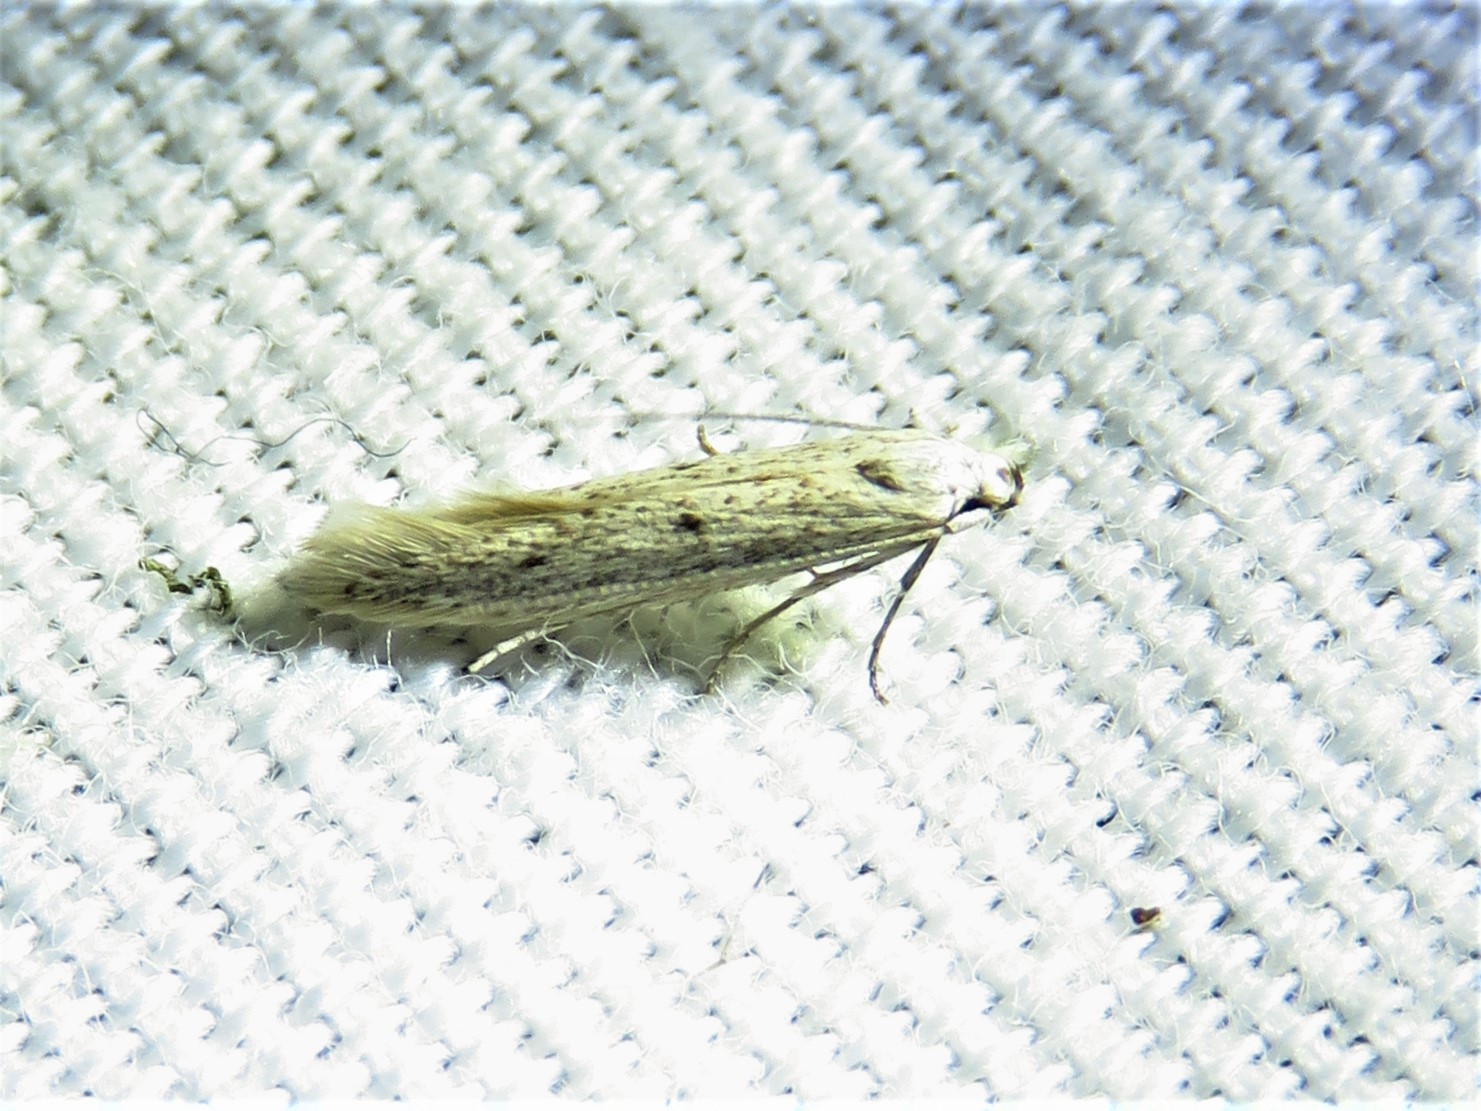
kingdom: Animalia
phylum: Arthropoda
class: Insecta
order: Lepidoptera
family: Elachistidae
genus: Haplochrois
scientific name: Haplochrois bipunctella
